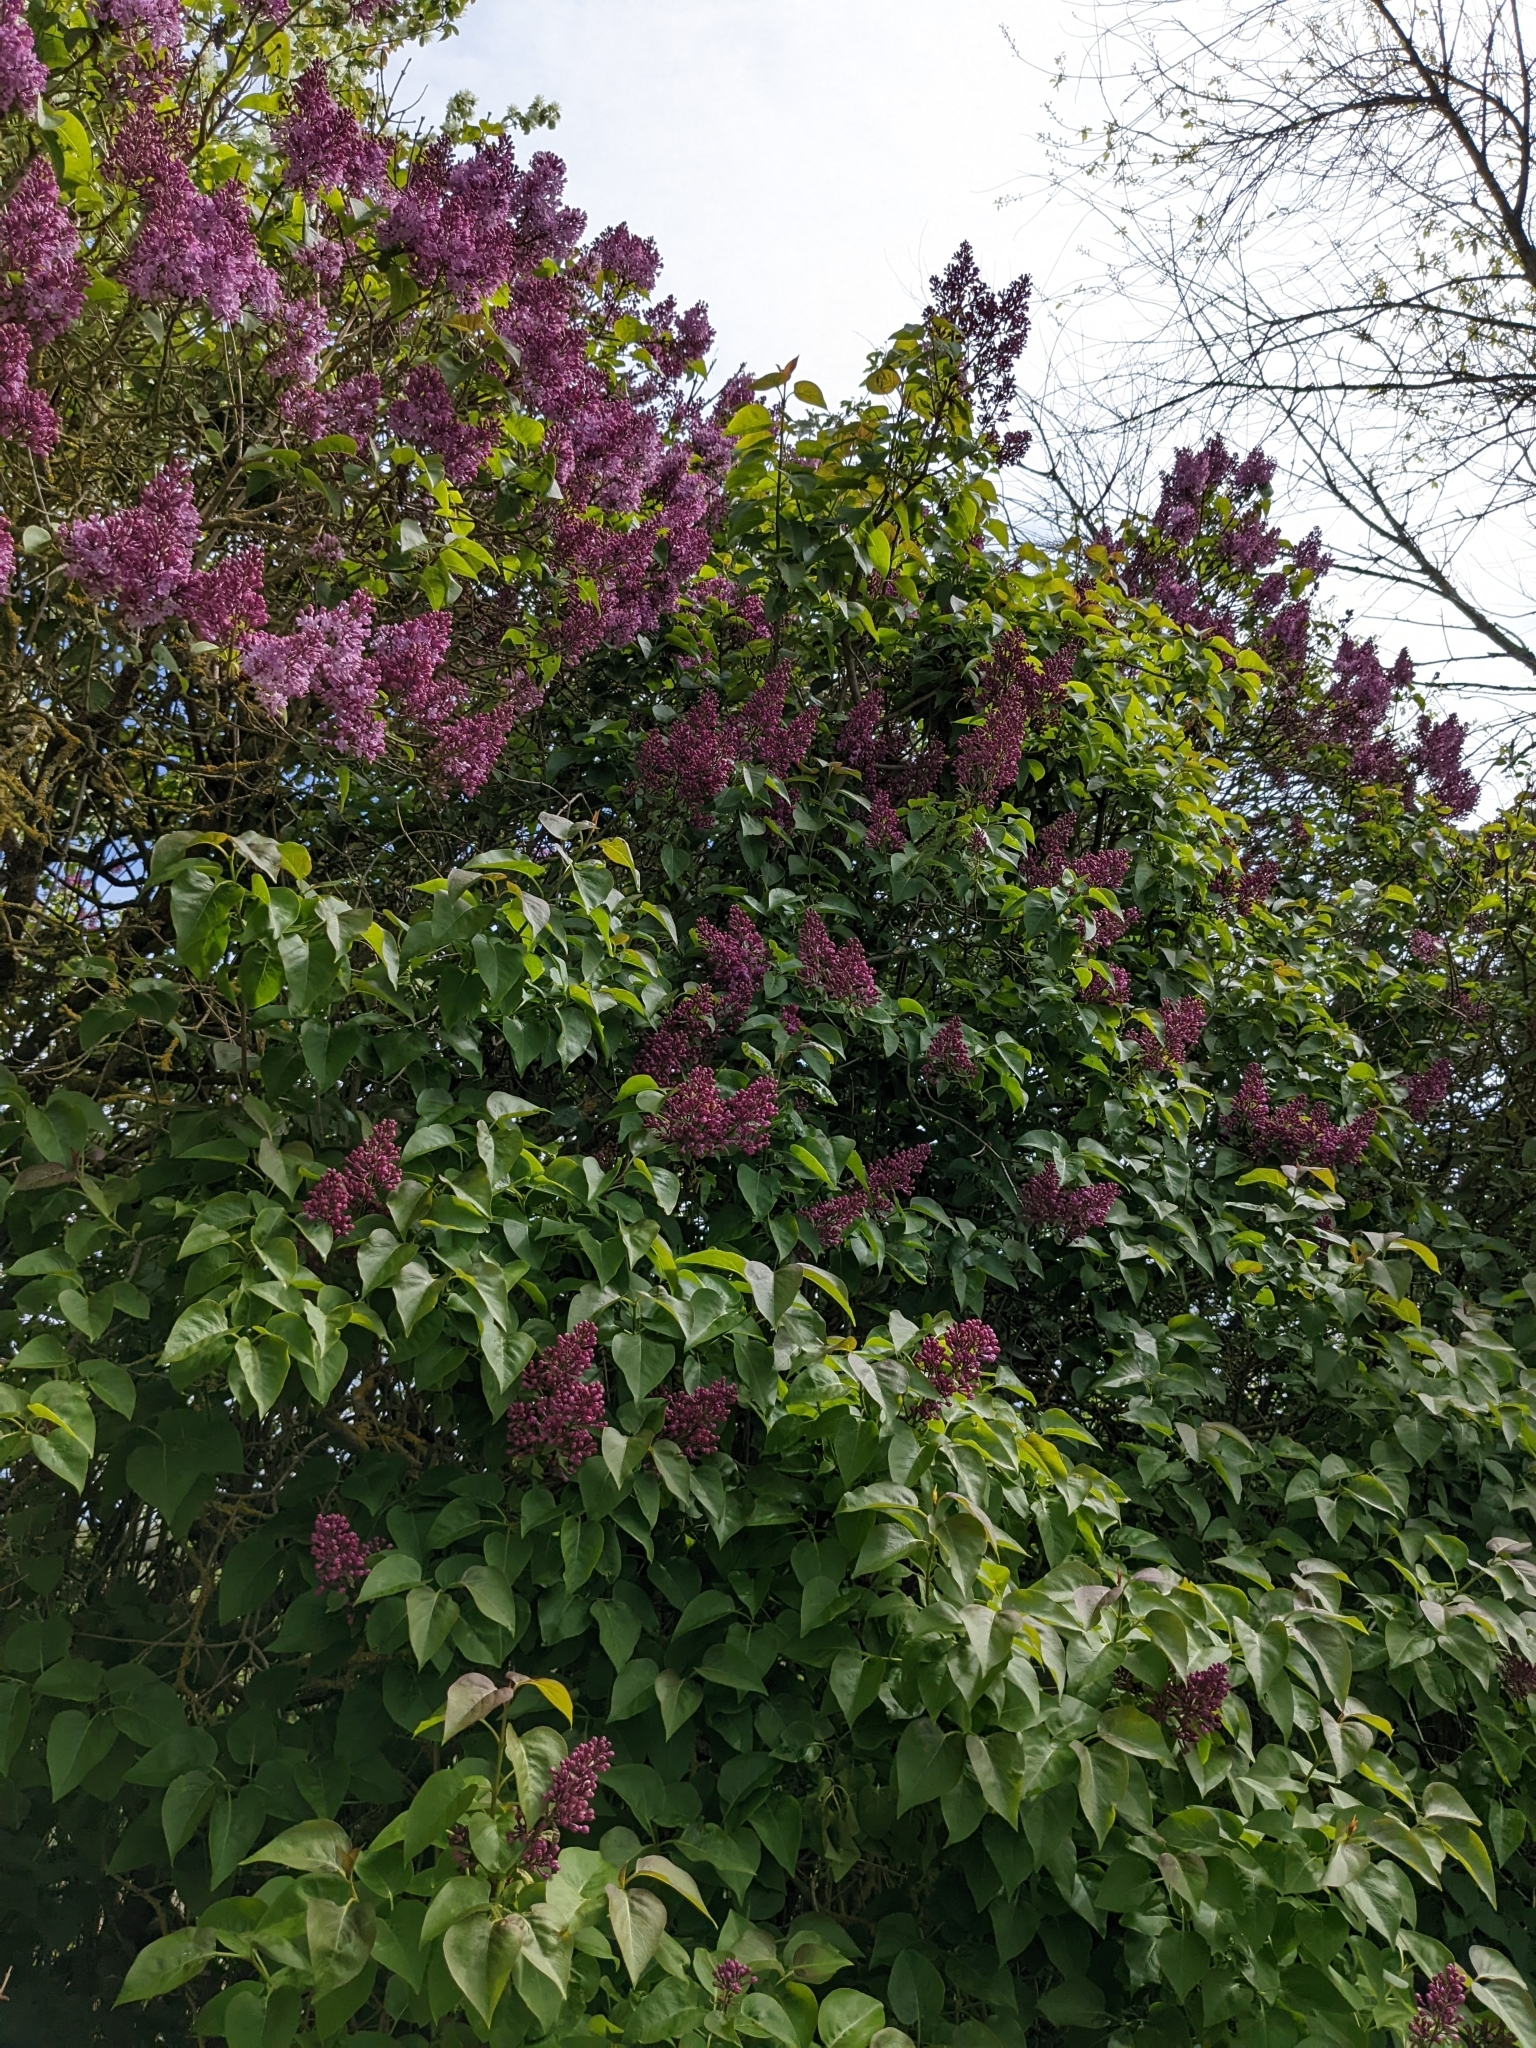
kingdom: Plantae
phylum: Tracheophyta
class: Magnoliopsida
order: Lamiales
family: Oleaceae
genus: Syringa
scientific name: Syringa vulgaris
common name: Common lilac
